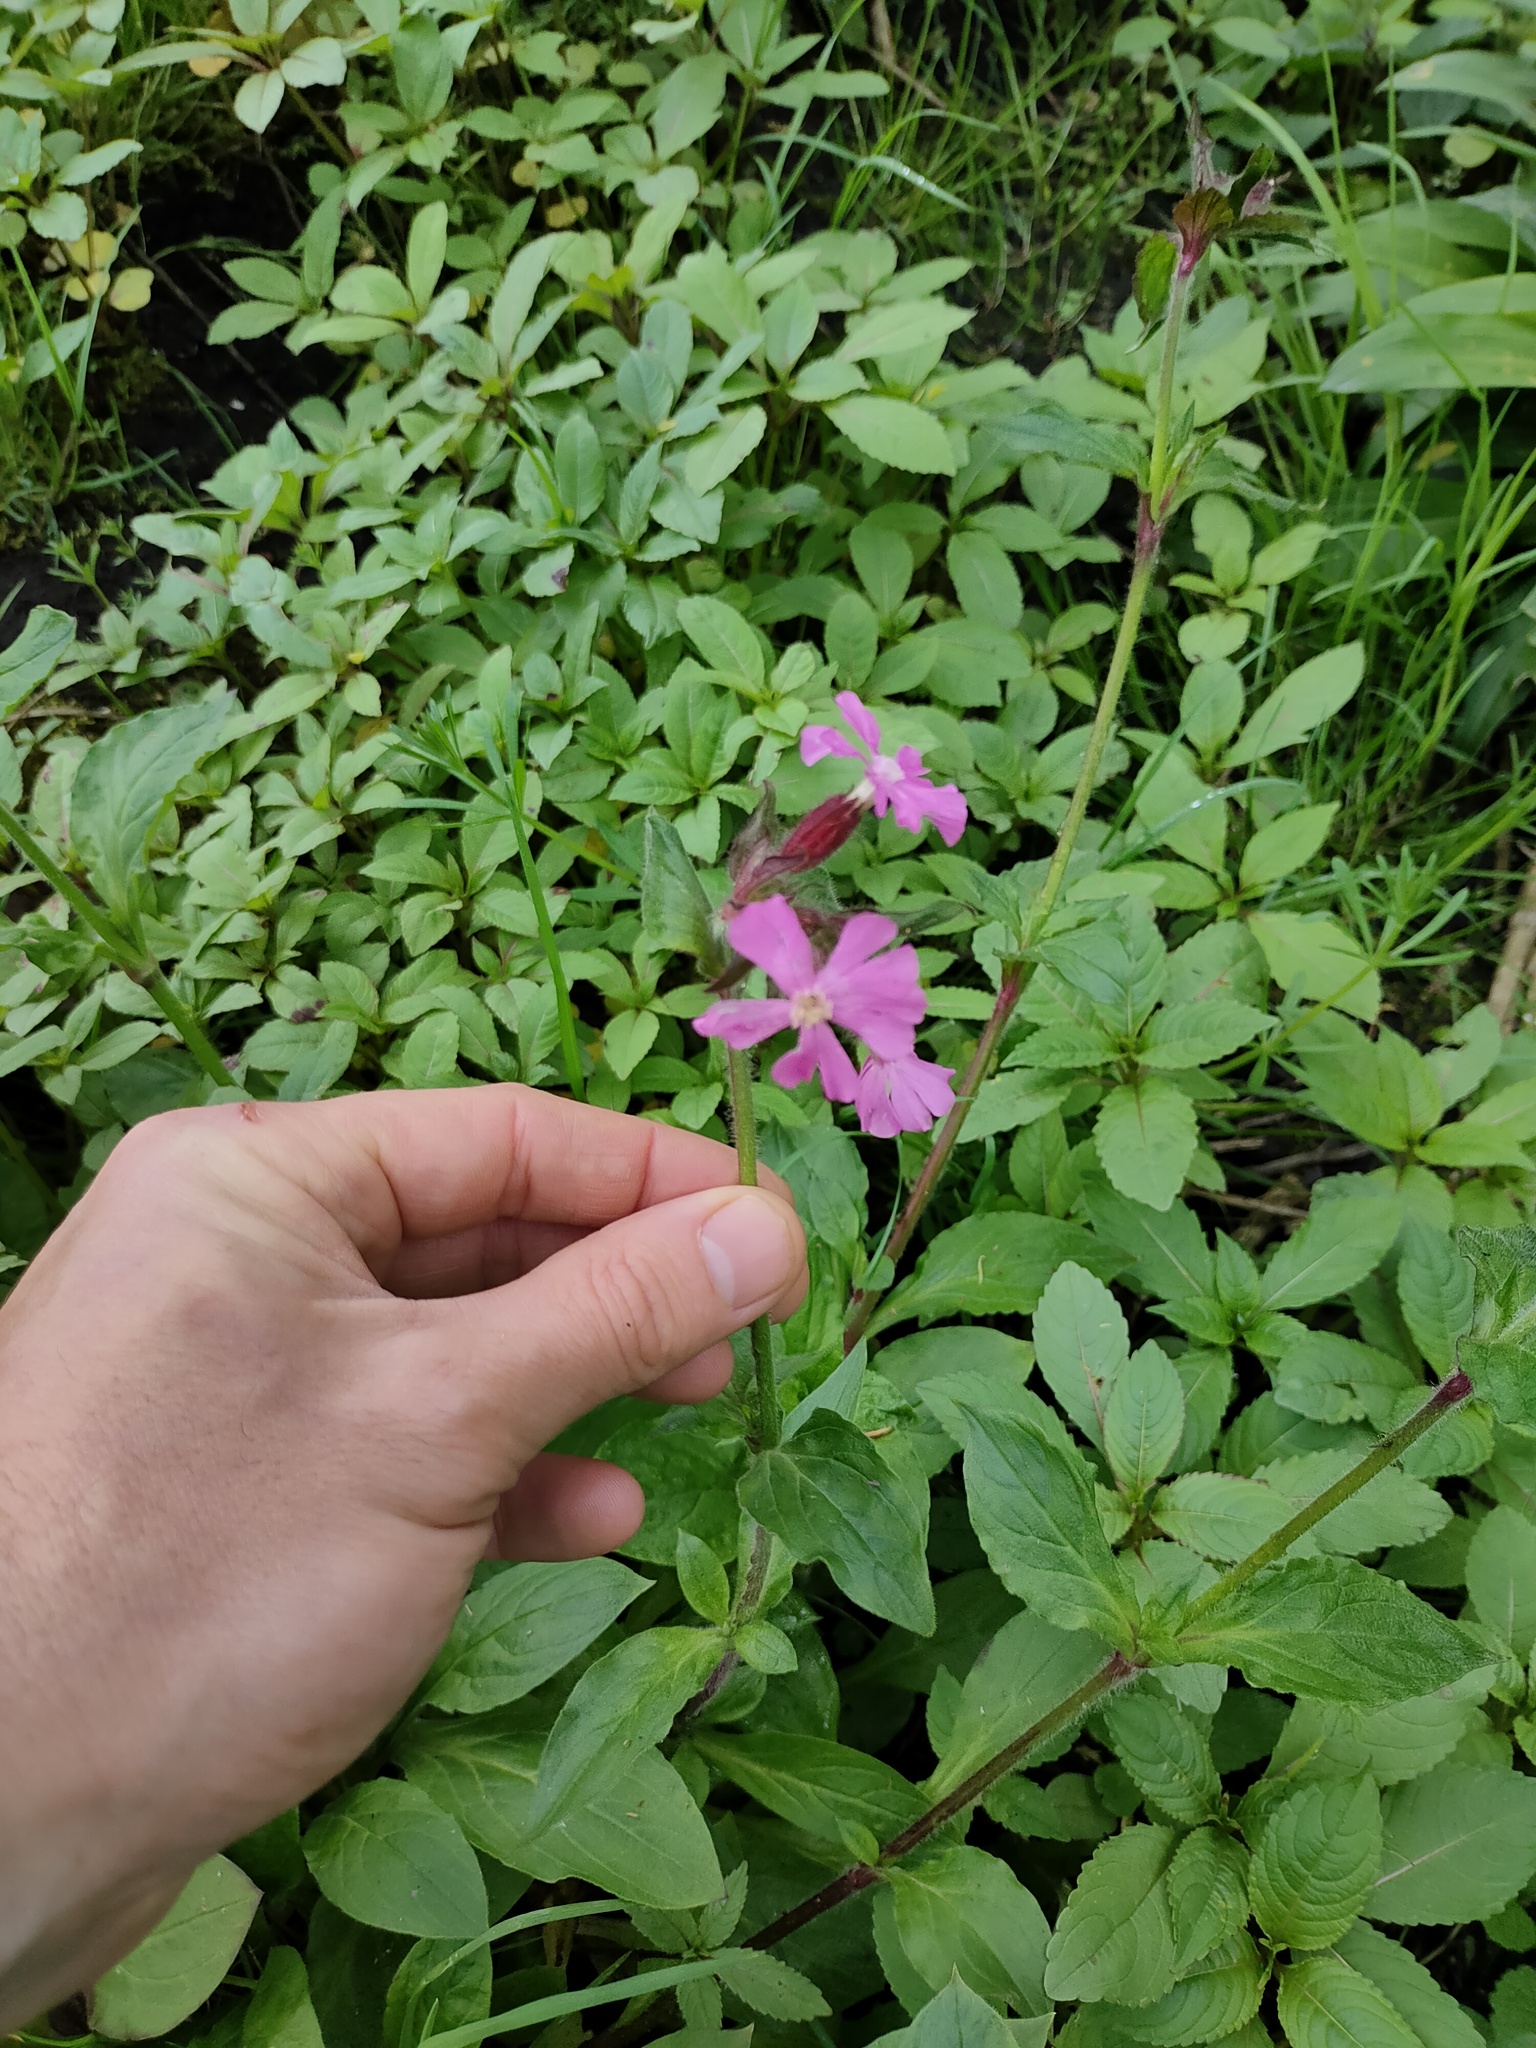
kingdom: Plantae
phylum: Tracheophyta
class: Magnoliopsida
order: Caryophyllales
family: Caryophyllaceae
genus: Silene
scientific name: Silene dioica
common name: Red campion
